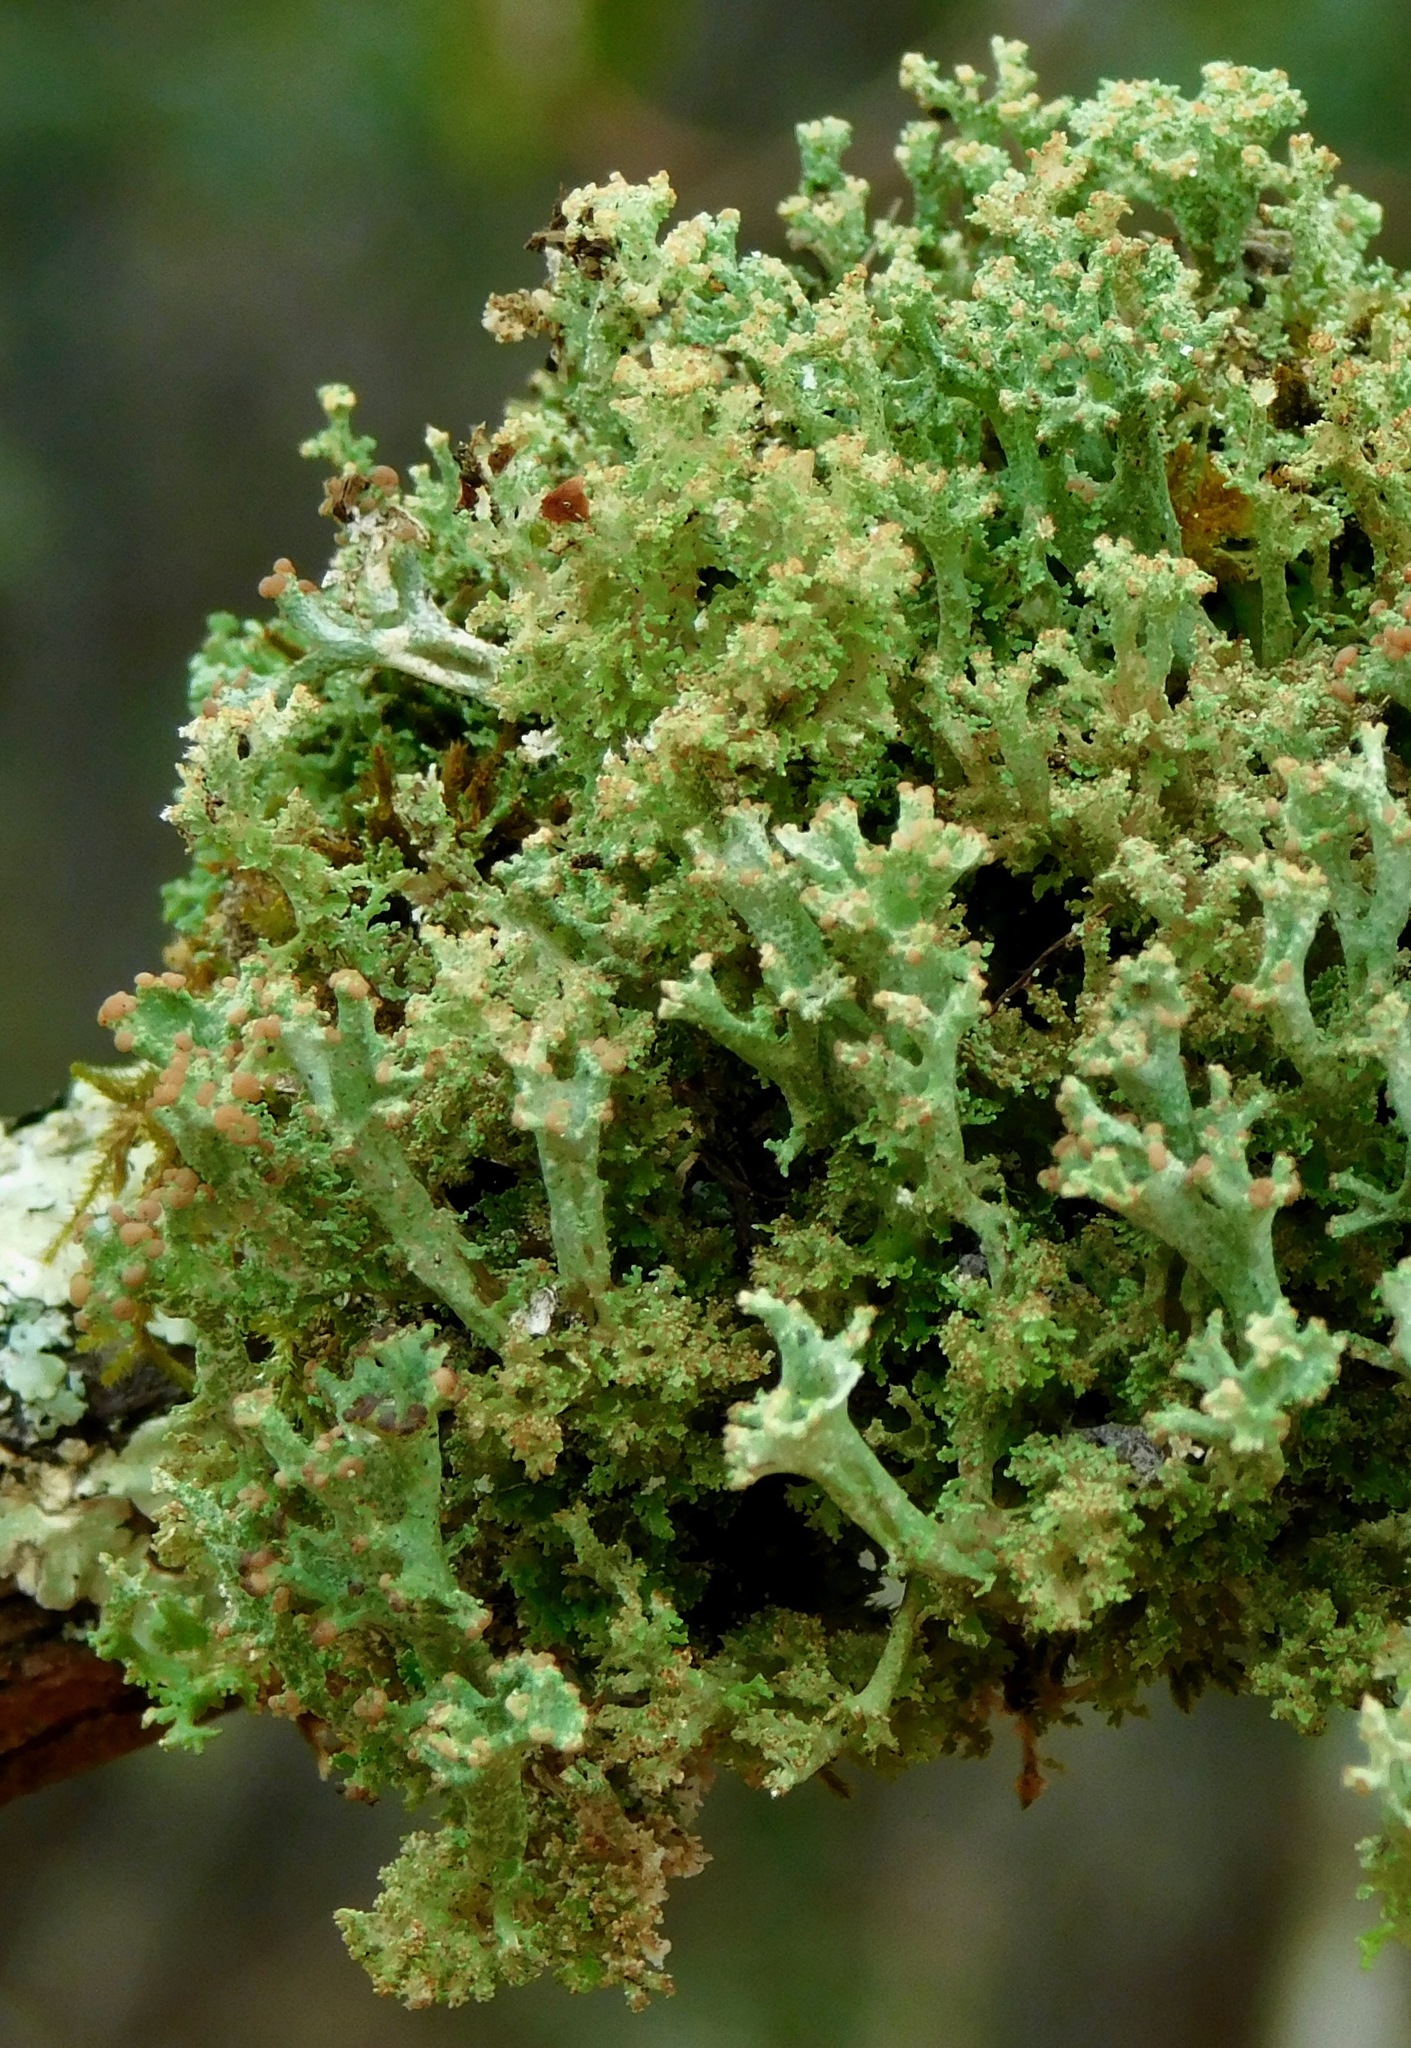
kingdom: Fungi
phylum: Ascomycota
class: Lecanoromycetes
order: Lecanorales
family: Cladoniaceae
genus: Cladonia
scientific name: Cladonia ramulosa
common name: Branched pixie-cup lichen
